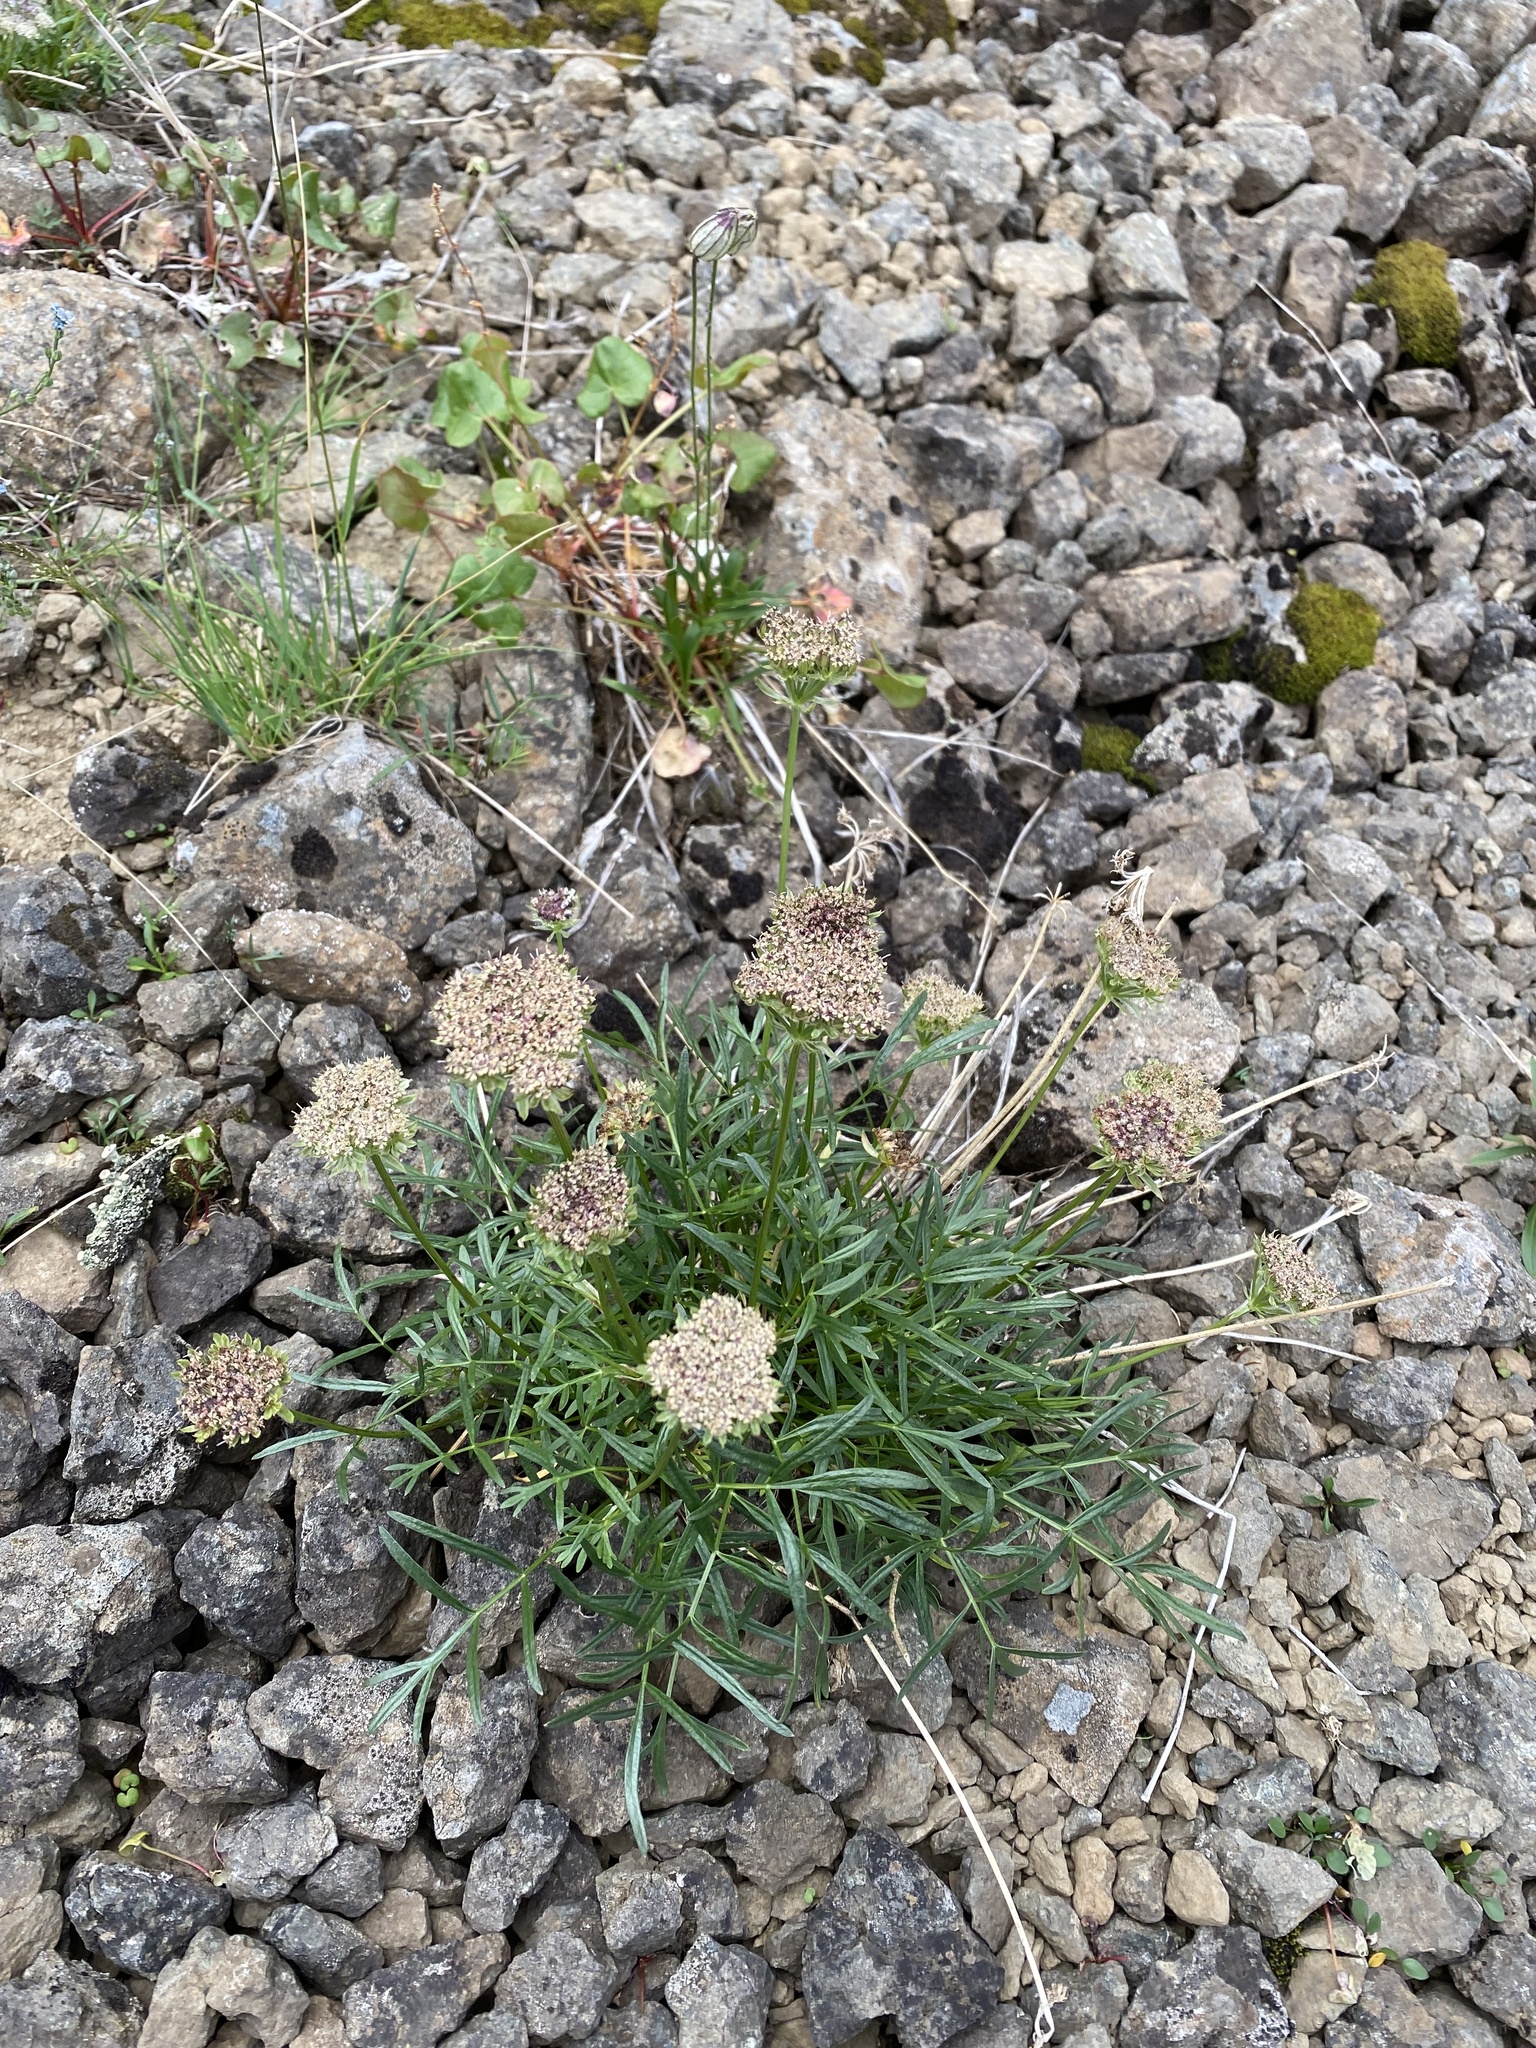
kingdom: Plantae
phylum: Tracheophyta
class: Magnoliopsida
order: Apiales
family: Apiaceae
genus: Pachypleurum
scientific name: Pachypleurum mutellinoides
